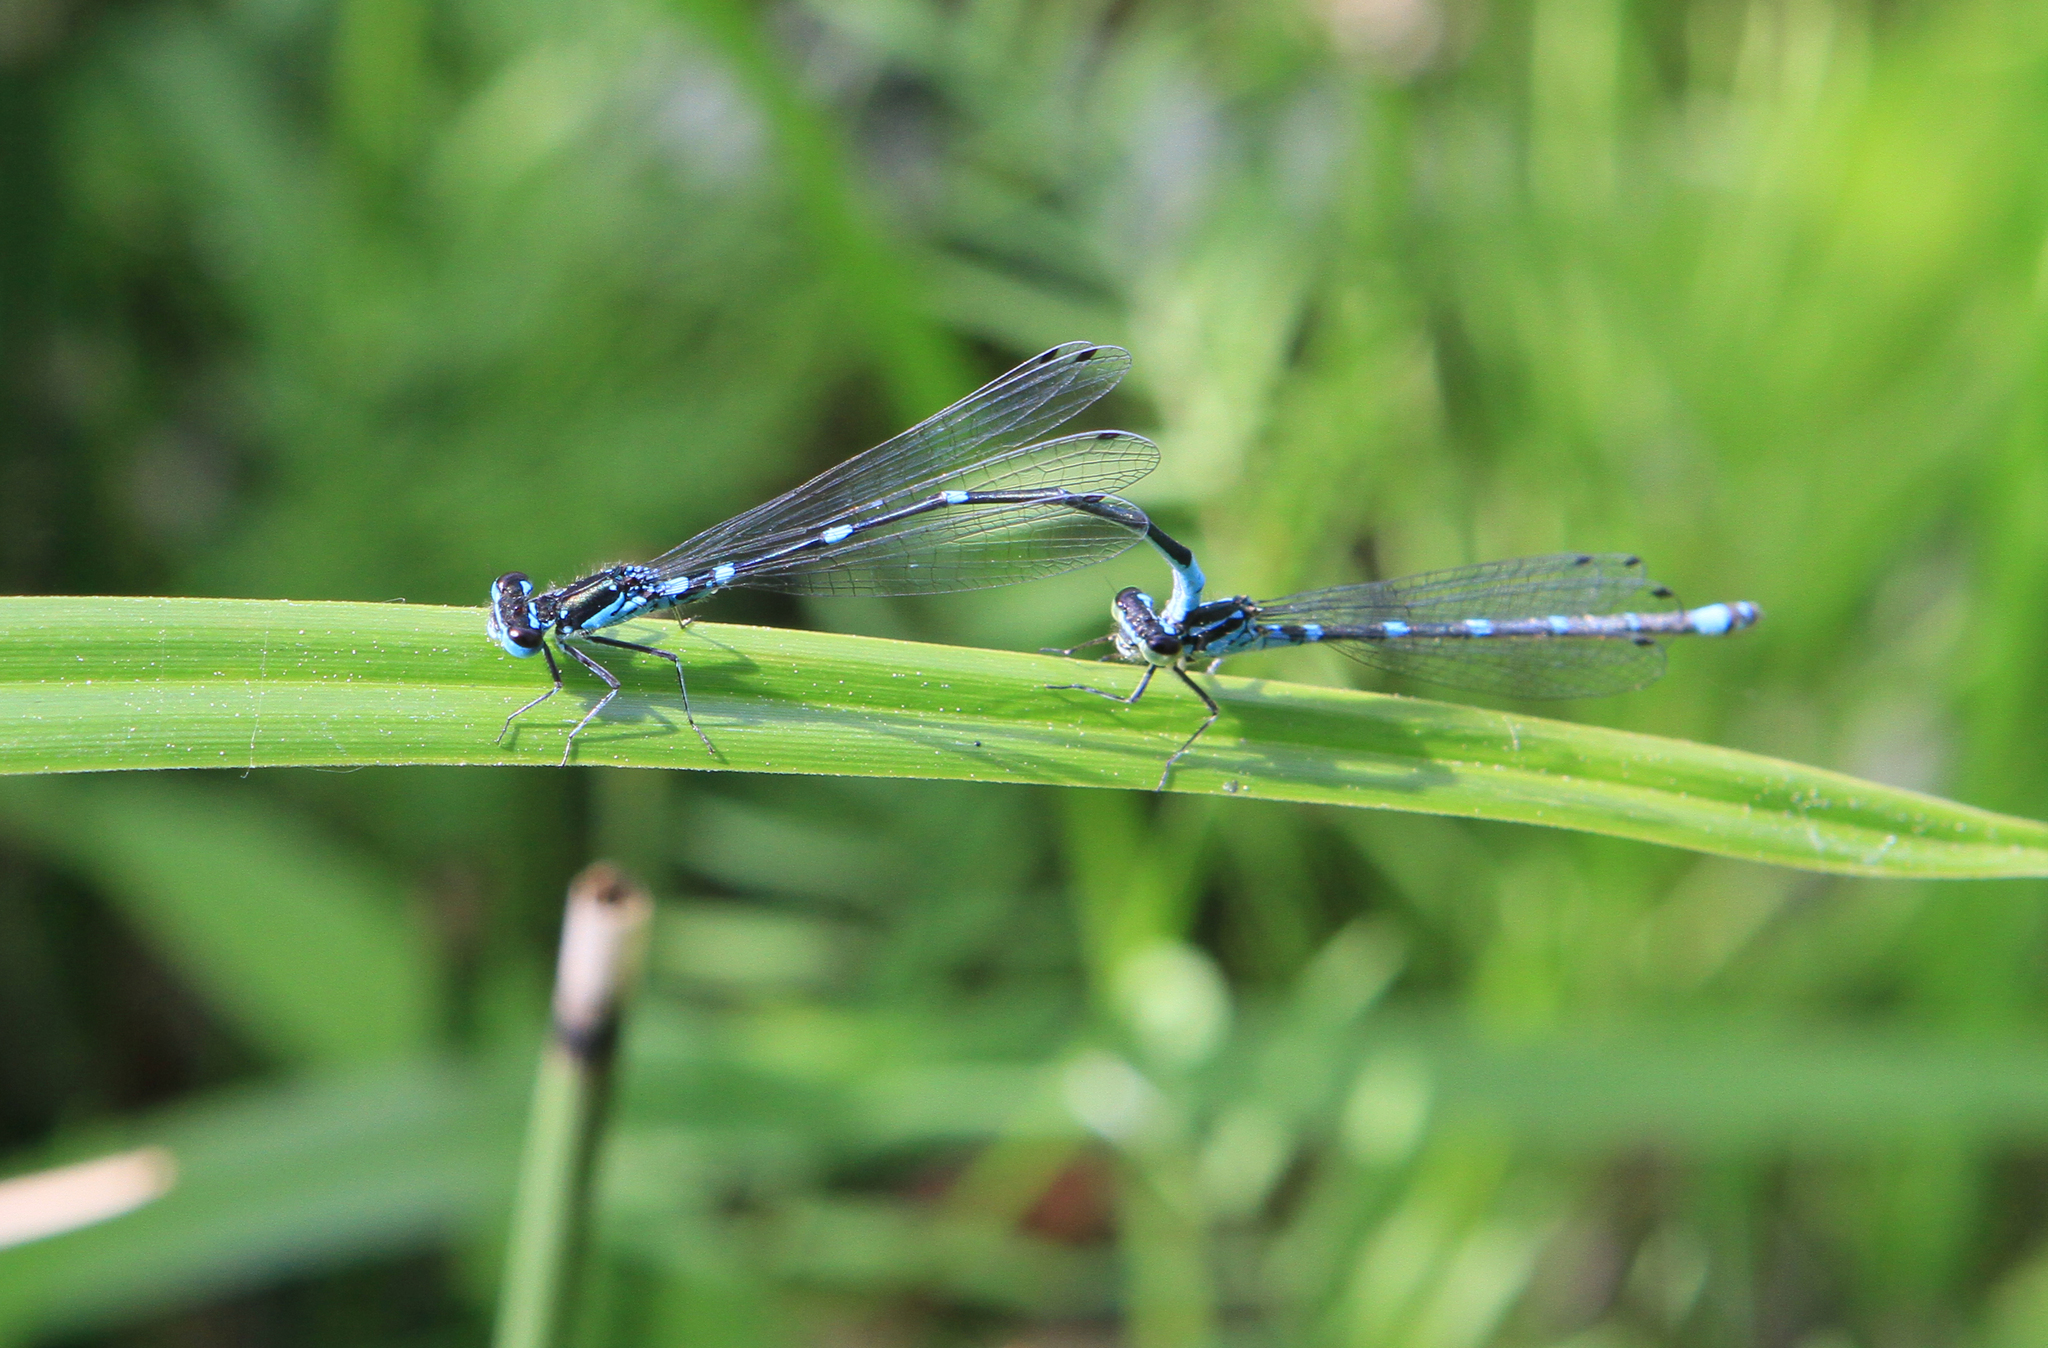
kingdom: Animalia
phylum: Arthropoda
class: Insecta
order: Odonata
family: Coenagrionidae
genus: Coenagrion
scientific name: Coenagrion pulchellum
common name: Variable bluet
